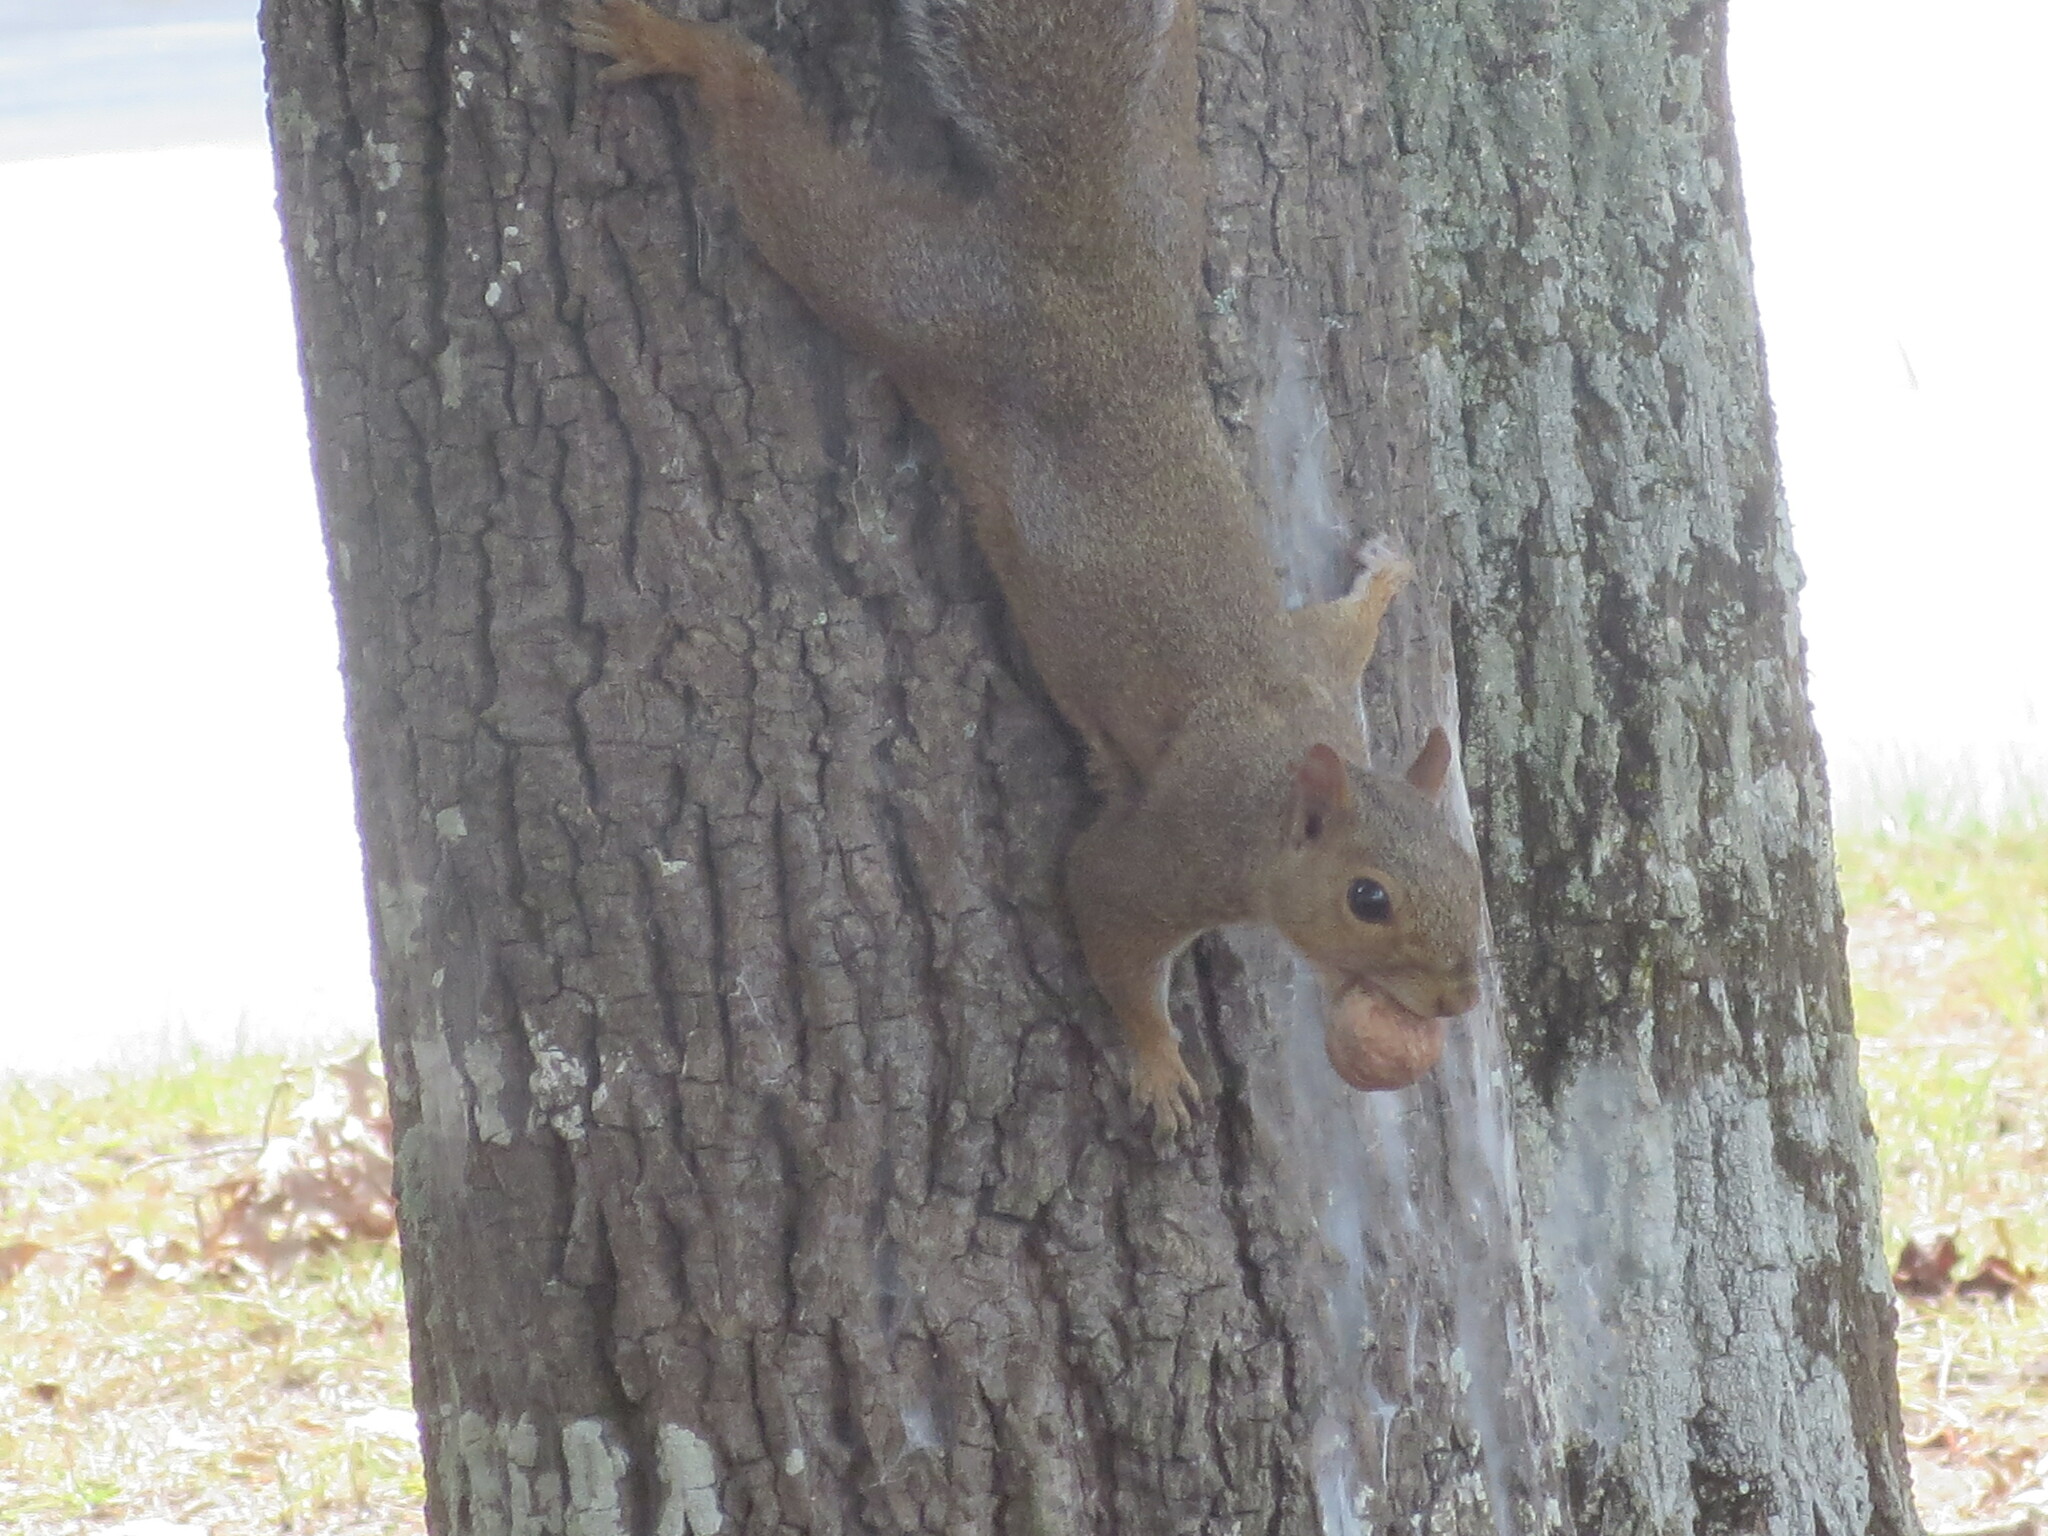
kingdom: Animalia
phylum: Chordata
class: Mammalia
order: Rodentia
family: Sciuridae
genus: Sciurus
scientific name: Sciurus carolinensis
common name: Eastern gray squirrel
